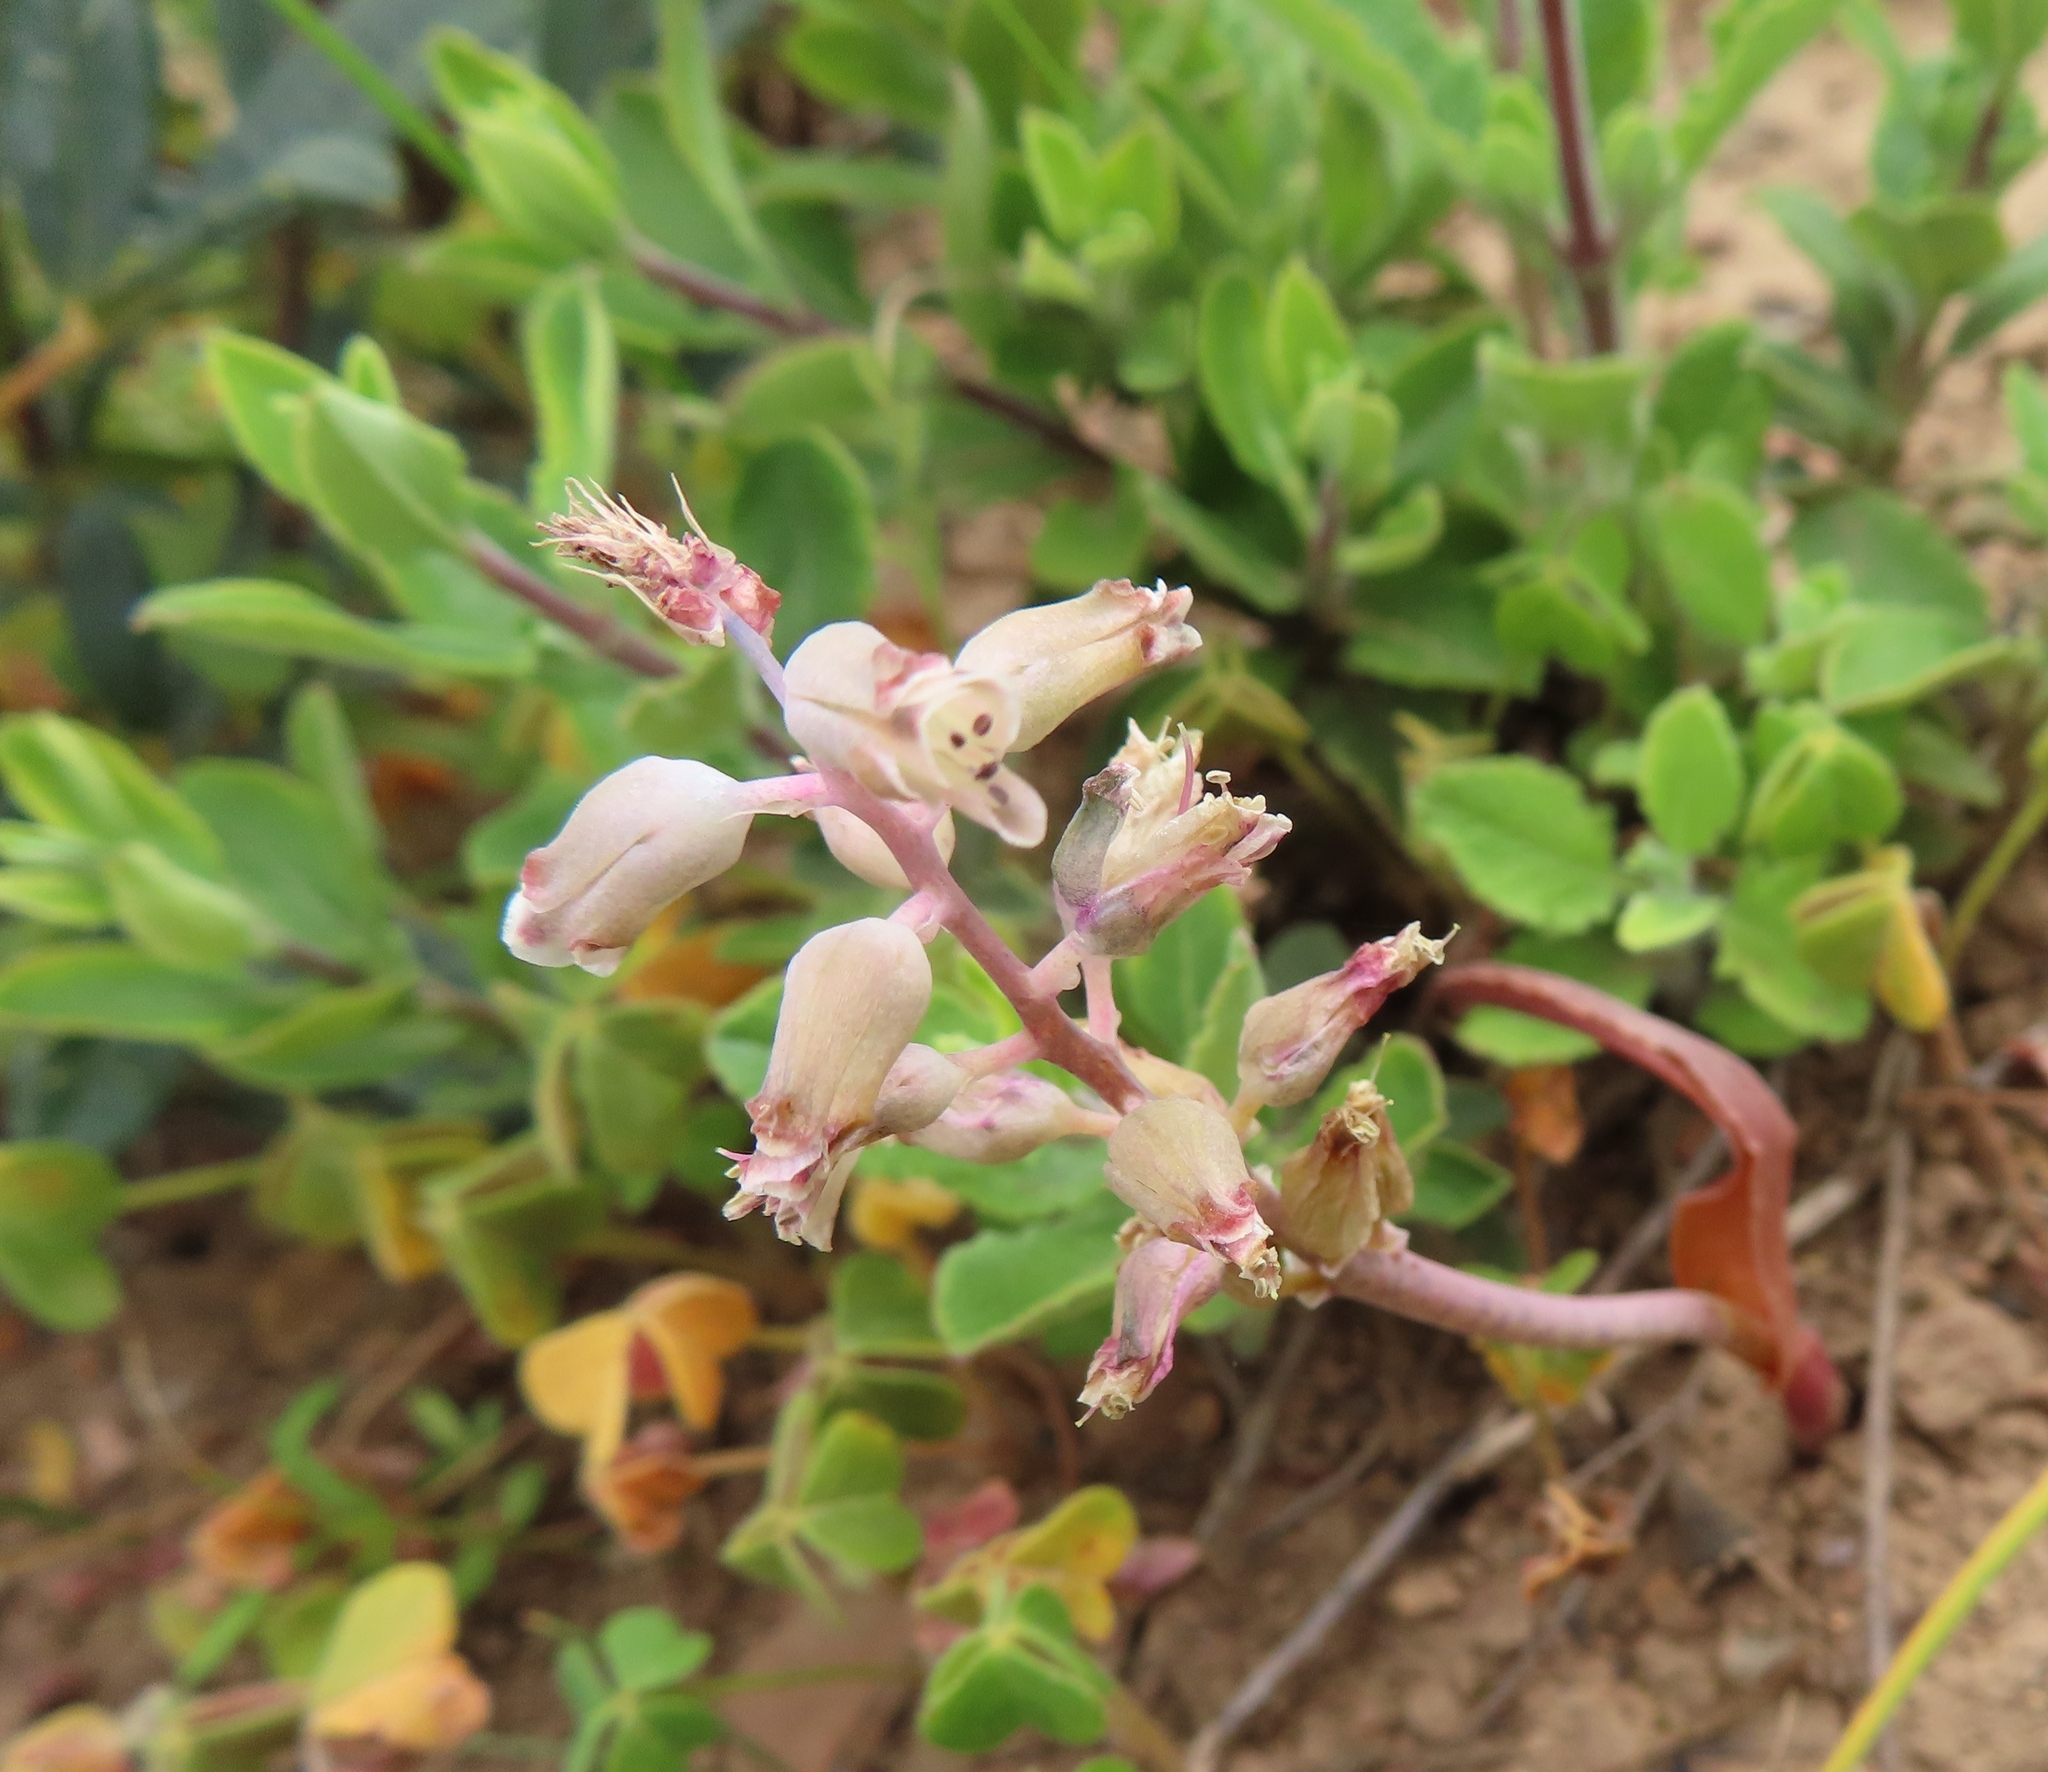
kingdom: Plantae
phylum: Tracheophyta
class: Liliopsida
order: Asparagales
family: Asparagaceae
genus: Lachenalia
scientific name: Lachenalia mediana
